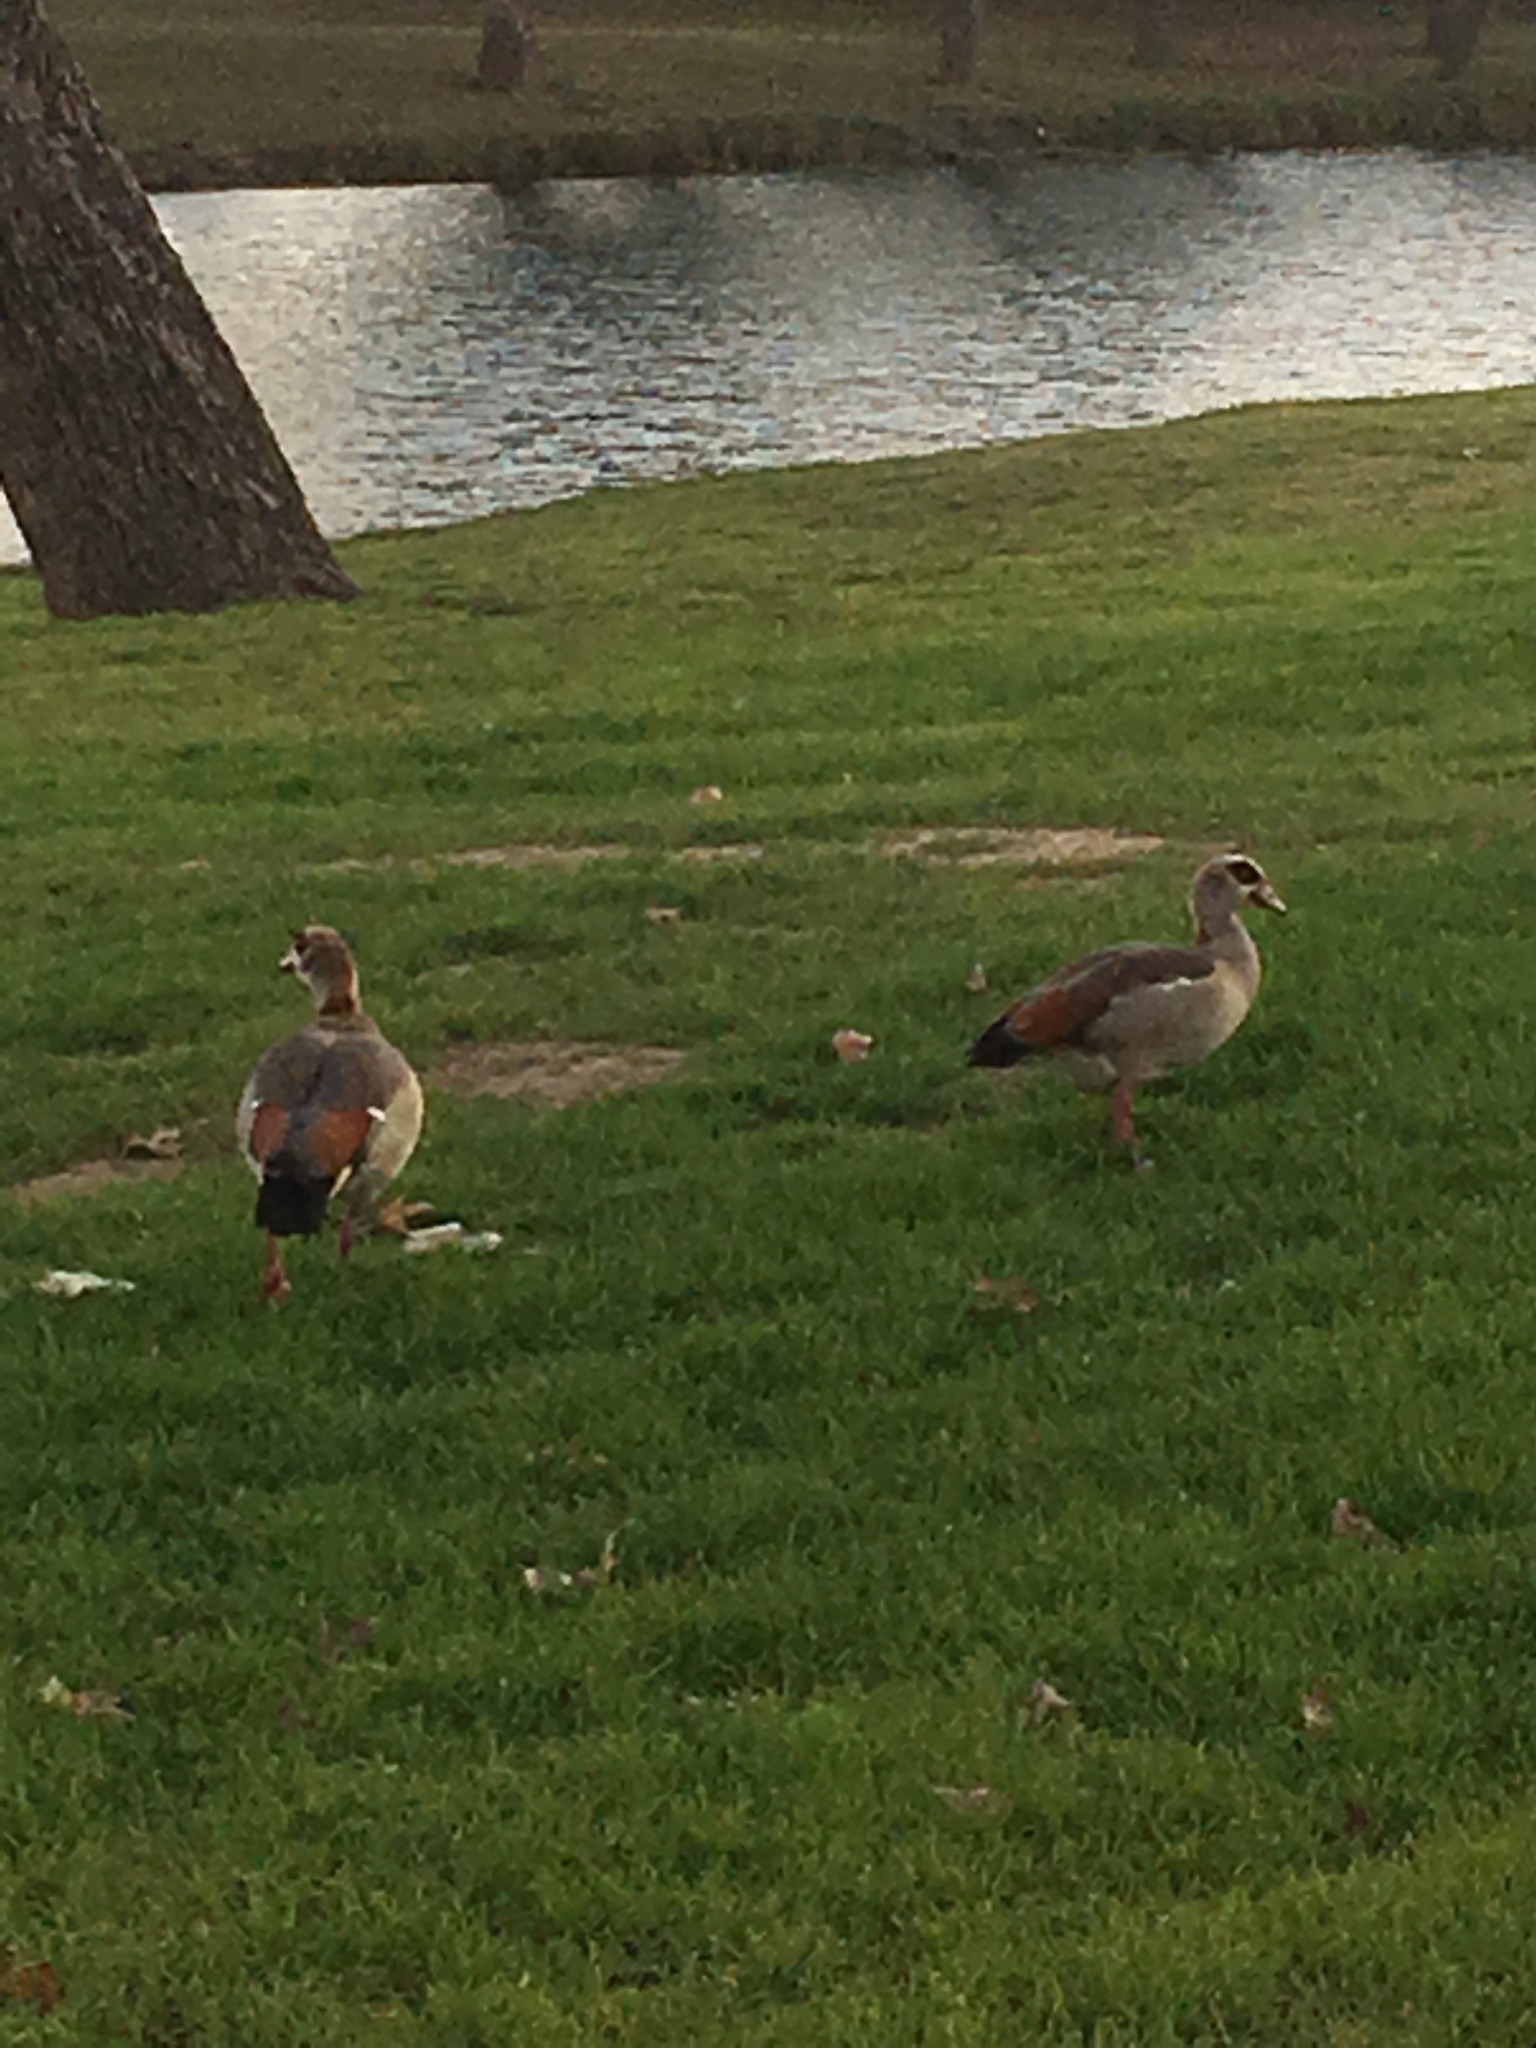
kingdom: Animalia
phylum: Chordata
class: Aves
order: Anseriformes
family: Anatidae
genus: Alopochen
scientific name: Alopochen aegyptiaca
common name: Egyptian goose
